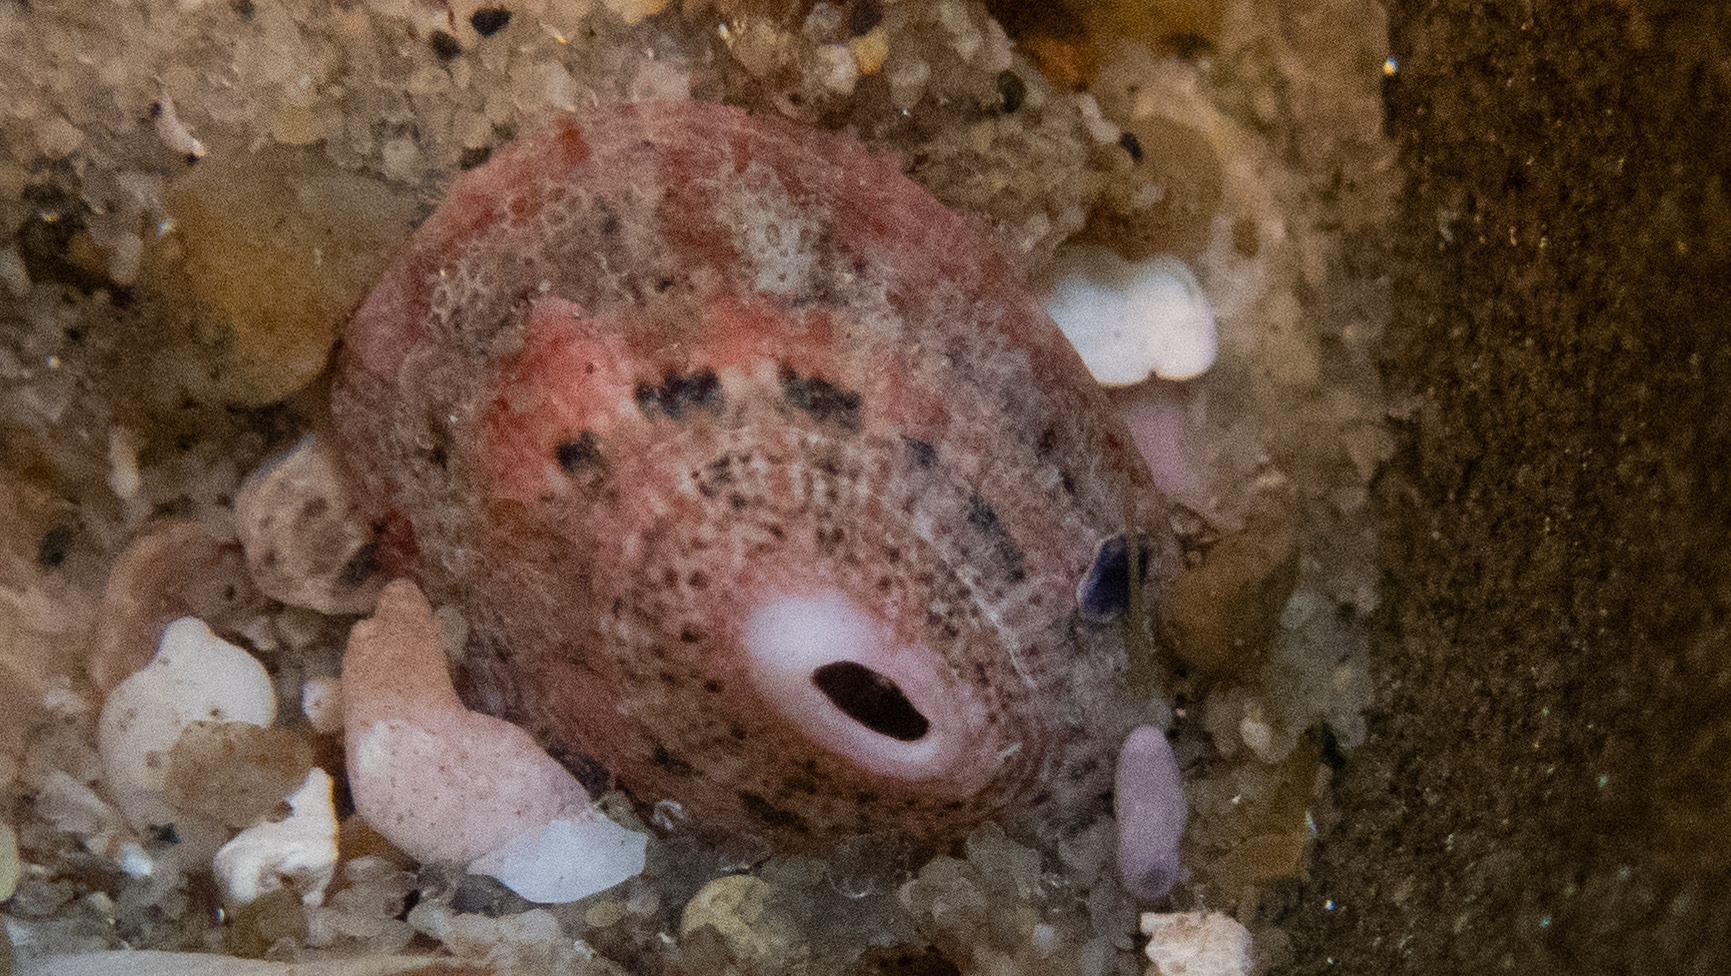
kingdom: Animalia
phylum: Mollusca
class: Gastropoda
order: Lepetellida
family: Fissurellidae
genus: Fissurella
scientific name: Fissurella volcano
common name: Volcano keyhole limpet
